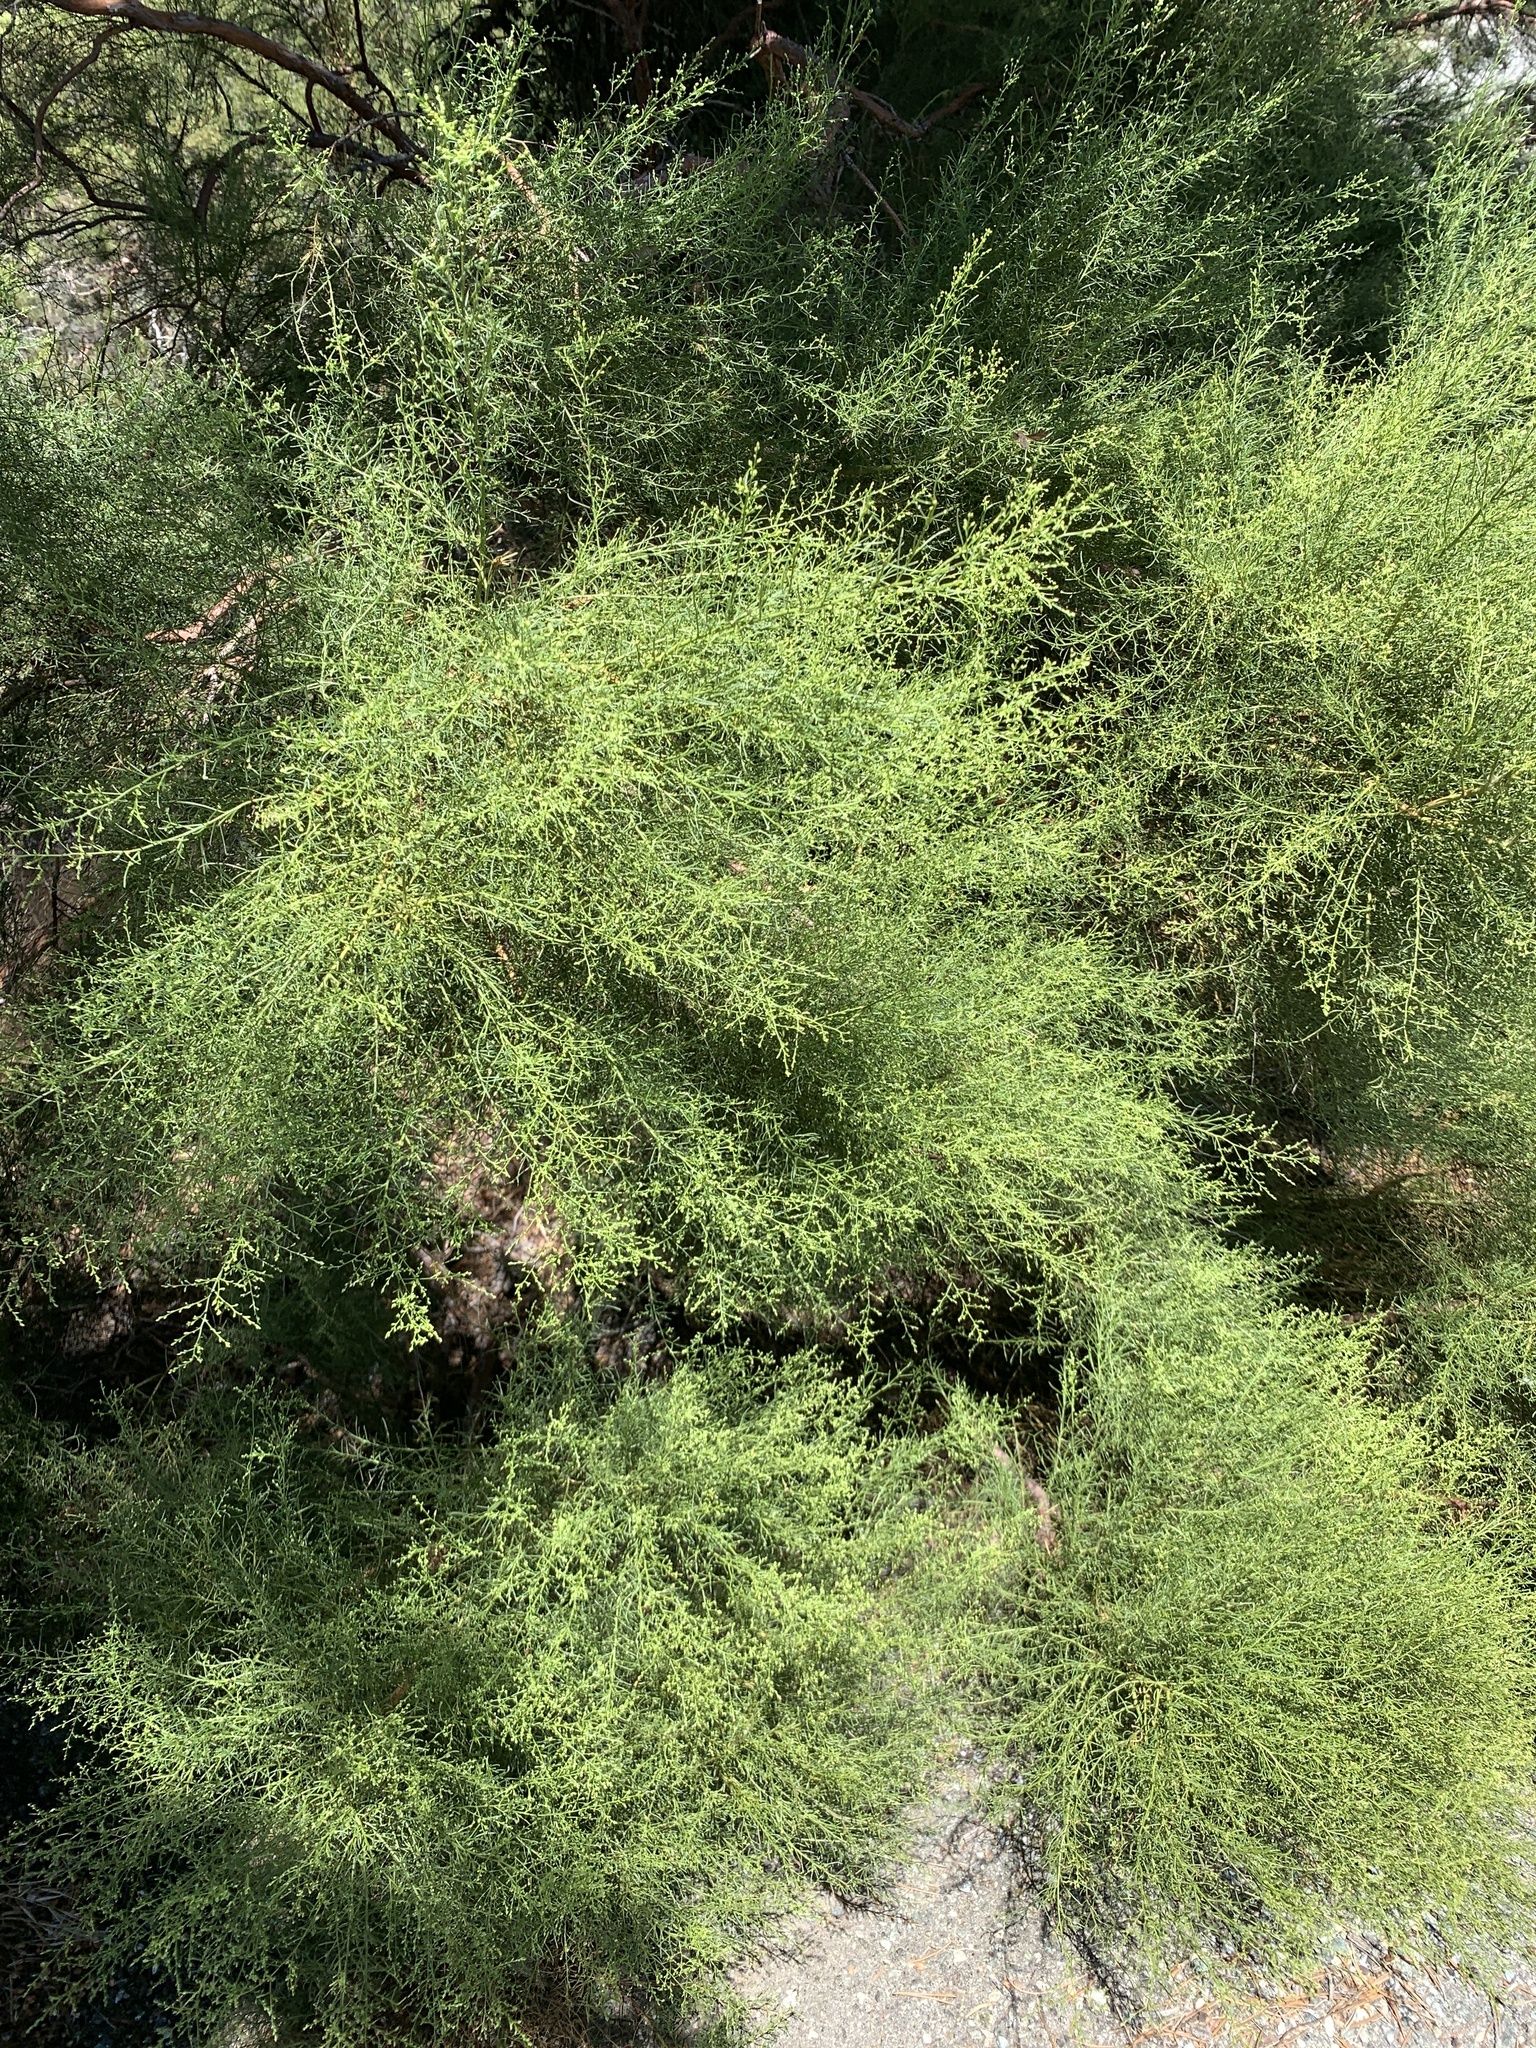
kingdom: Plantae
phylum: Tracheophyta
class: Magnoliopsida
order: Rosales
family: Rosaceae
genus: Adenostoma
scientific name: Adenostoma sparsifolium
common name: Red shank
